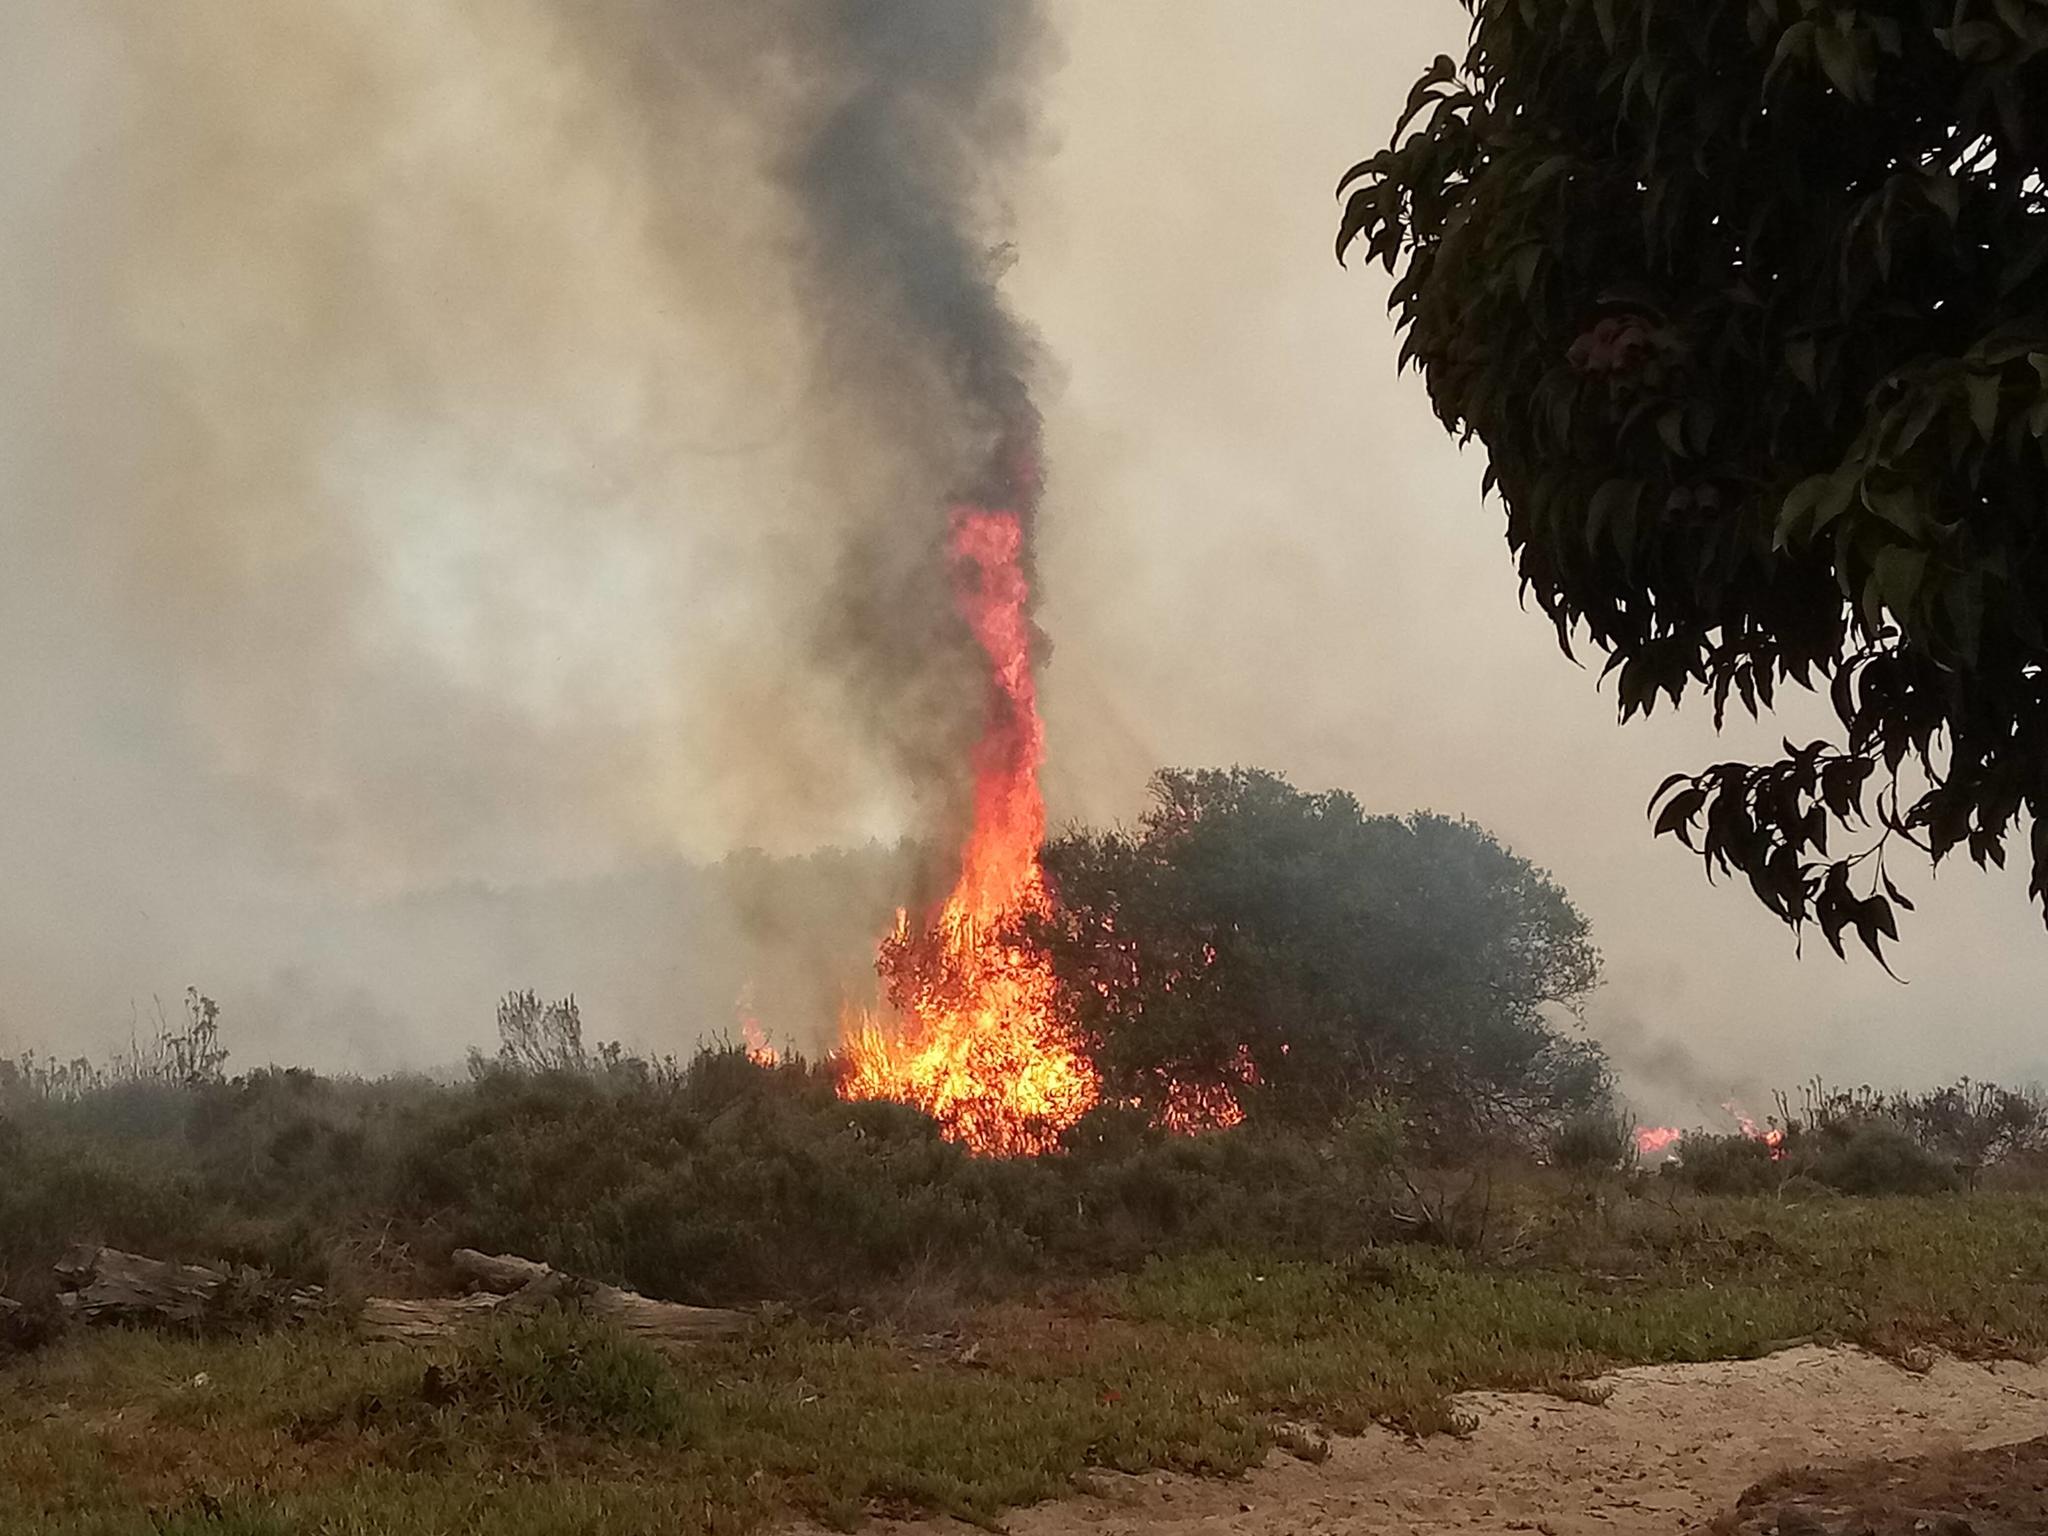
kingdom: Plantae
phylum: Tracheophyta
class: Magnoliopsida
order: Asterales
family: Asteraceae
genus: Osteospermum
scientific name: Osteospermum moniliferum
